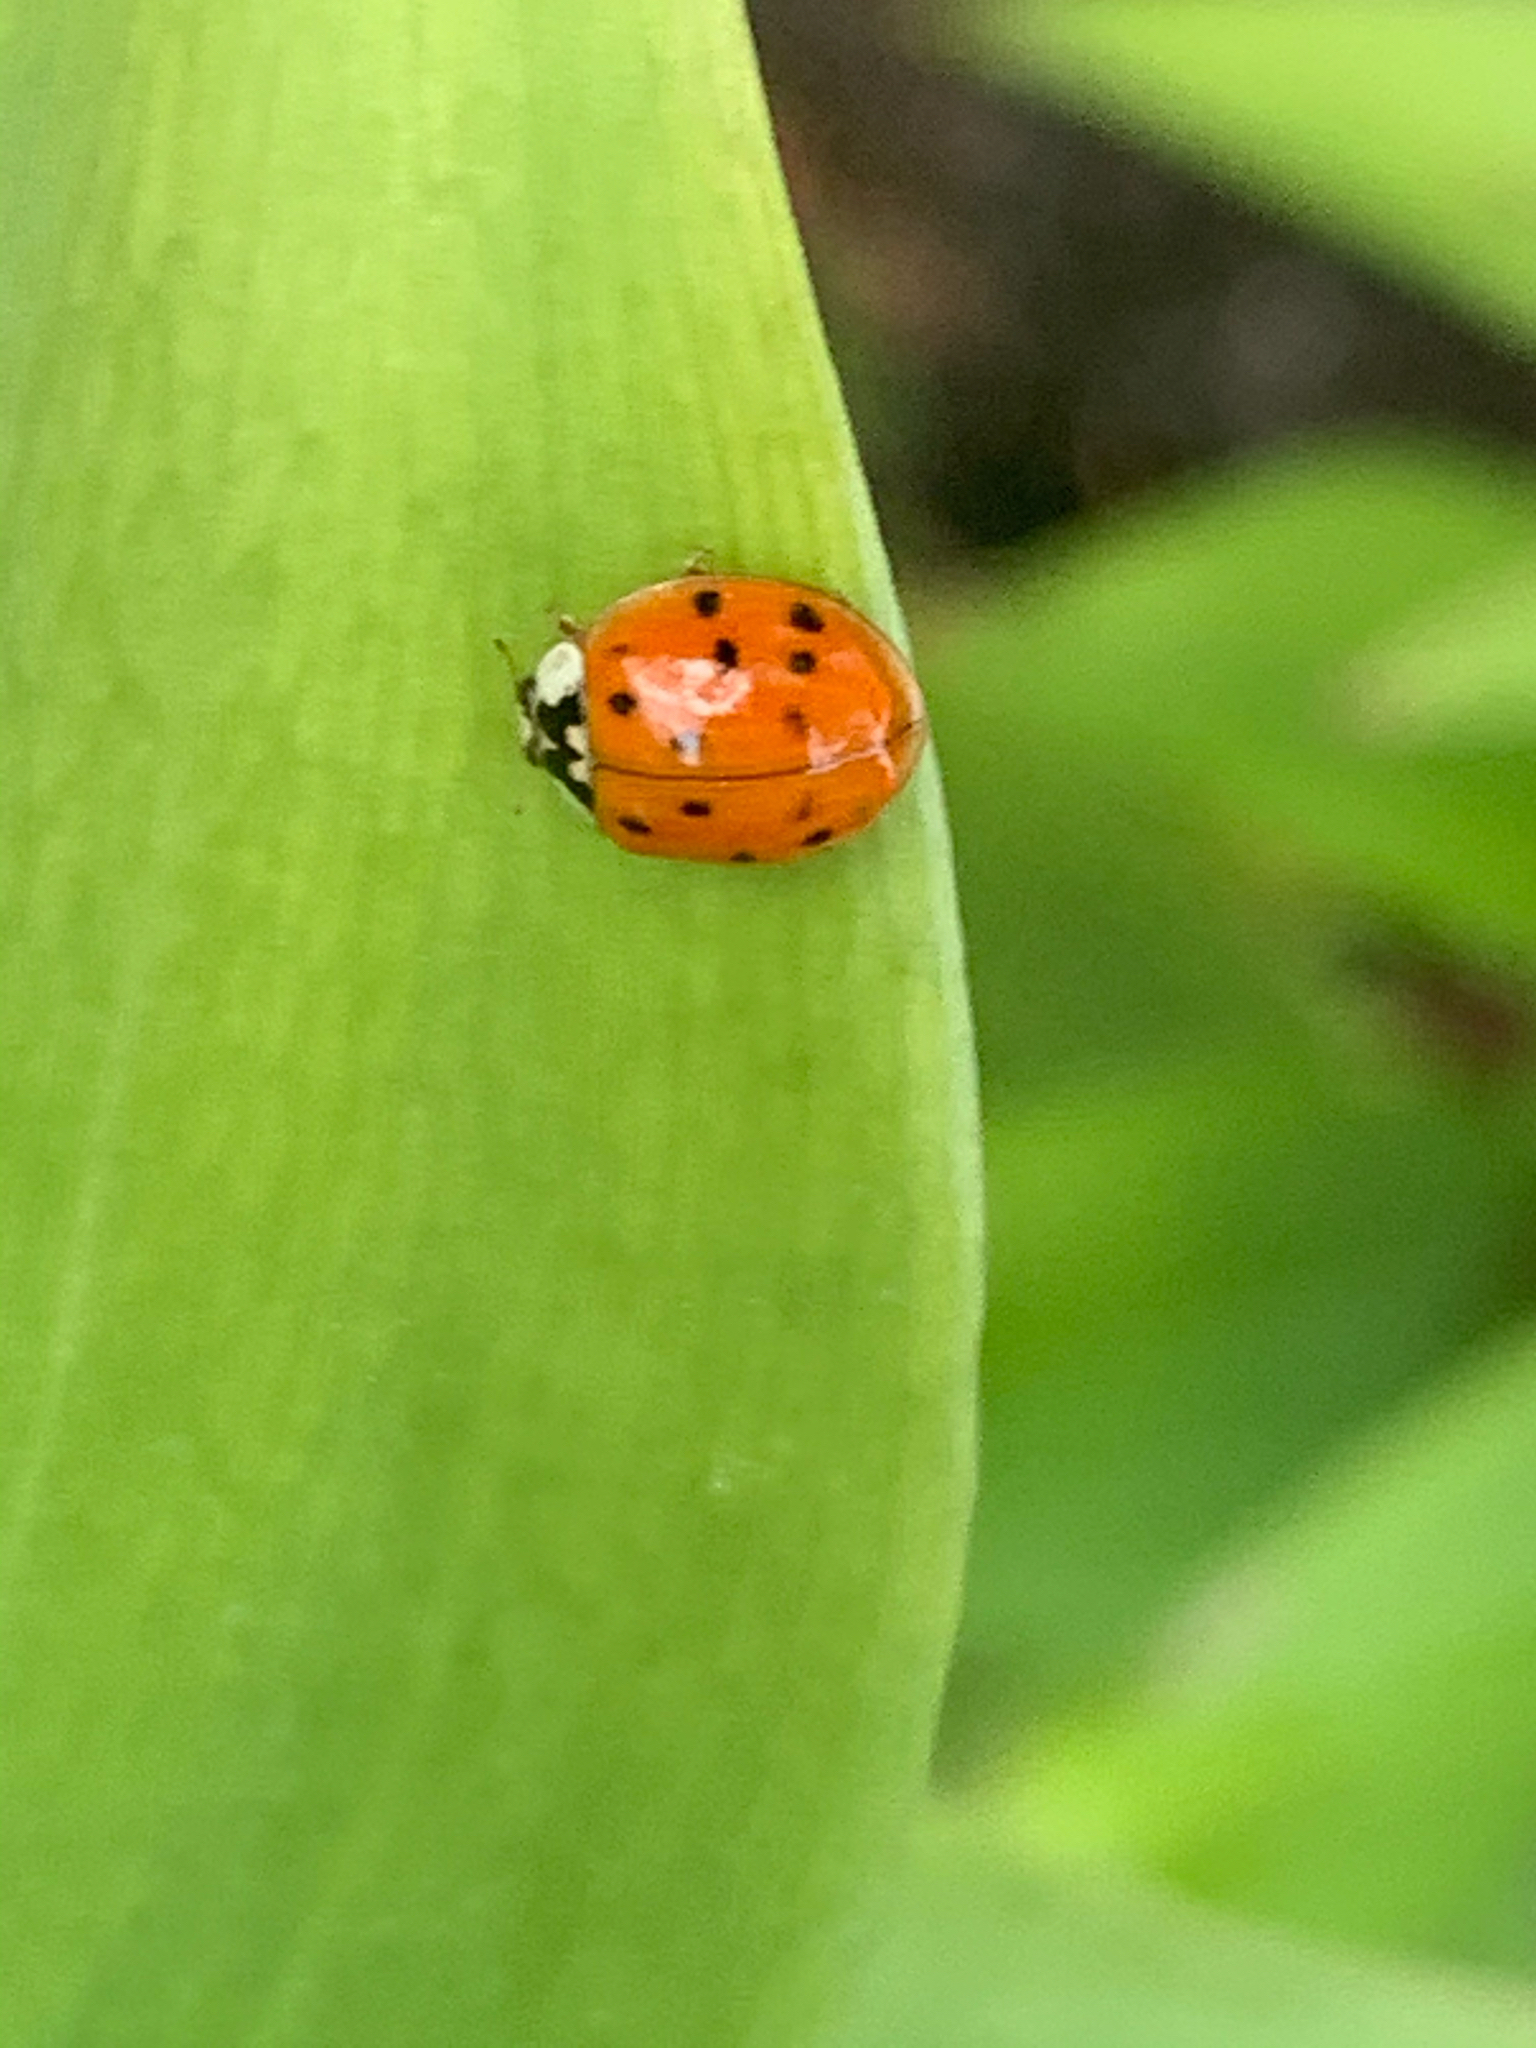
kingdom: Animalia
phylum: Arthropoda
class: Insecta
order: Coleoptera
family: Coccinellidae
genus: Harmonia
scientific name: Harmonia axyridis
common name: Harlequin ladybird
